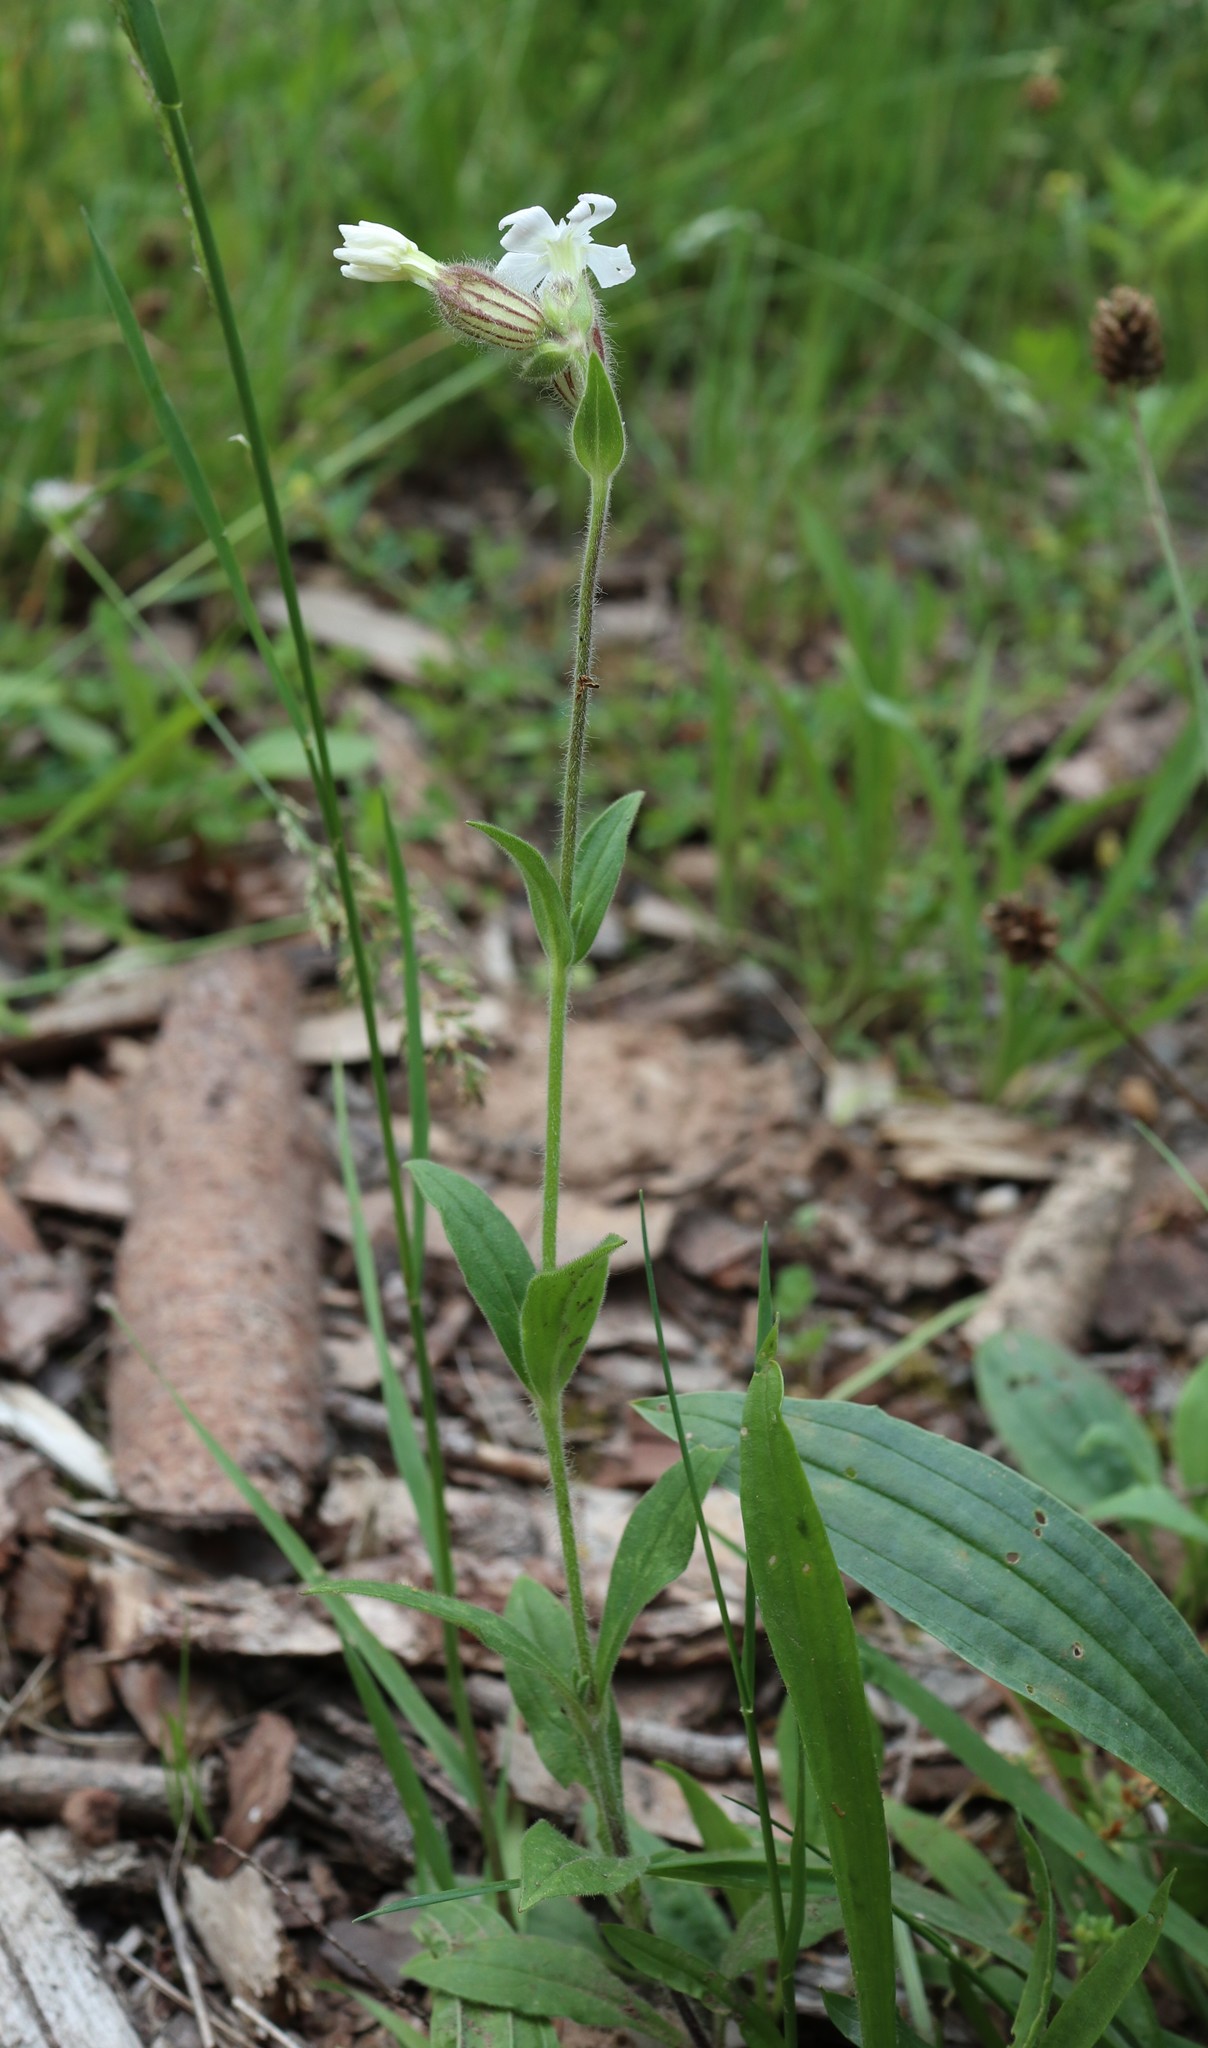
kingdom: Plantae
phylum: Tracheophyta
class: Magnoliopsida
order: Caryophyllales
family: Caryophyllaceae
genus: Silene
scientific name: Silene latifolia
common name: White campion
